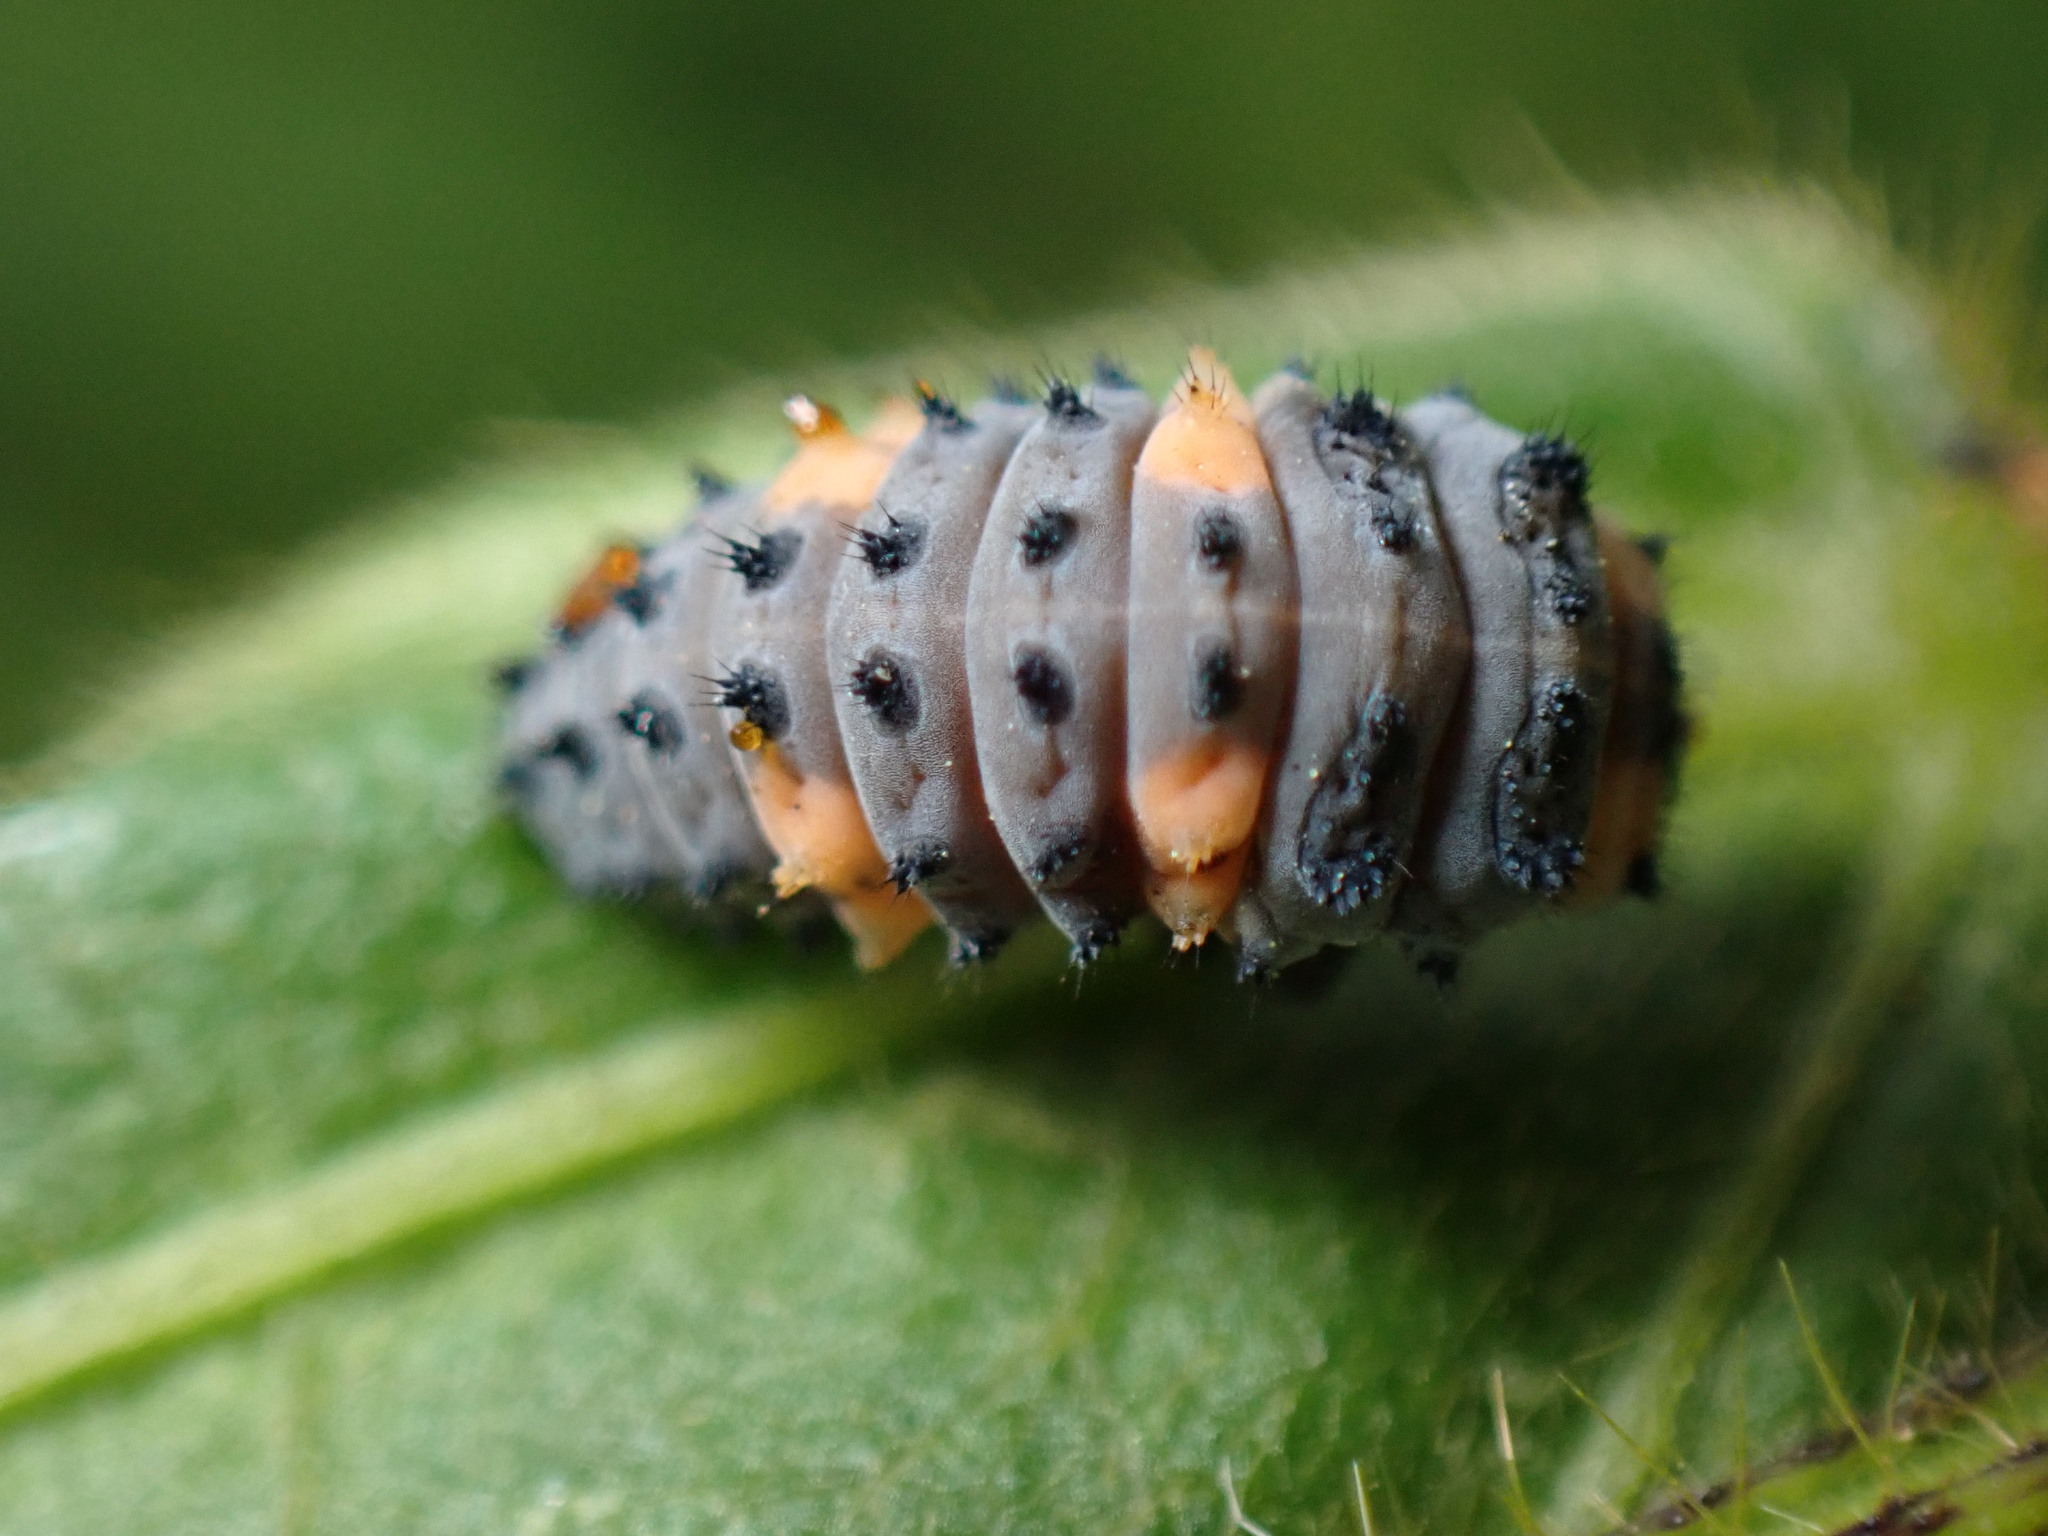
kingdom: Animalia
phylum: Arthropoda
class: Insecta
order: Coleoptera
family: Coccinellidae
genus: Coccinella
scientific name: Coccinella septempunctata
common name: Sevenspotted lady beetle
